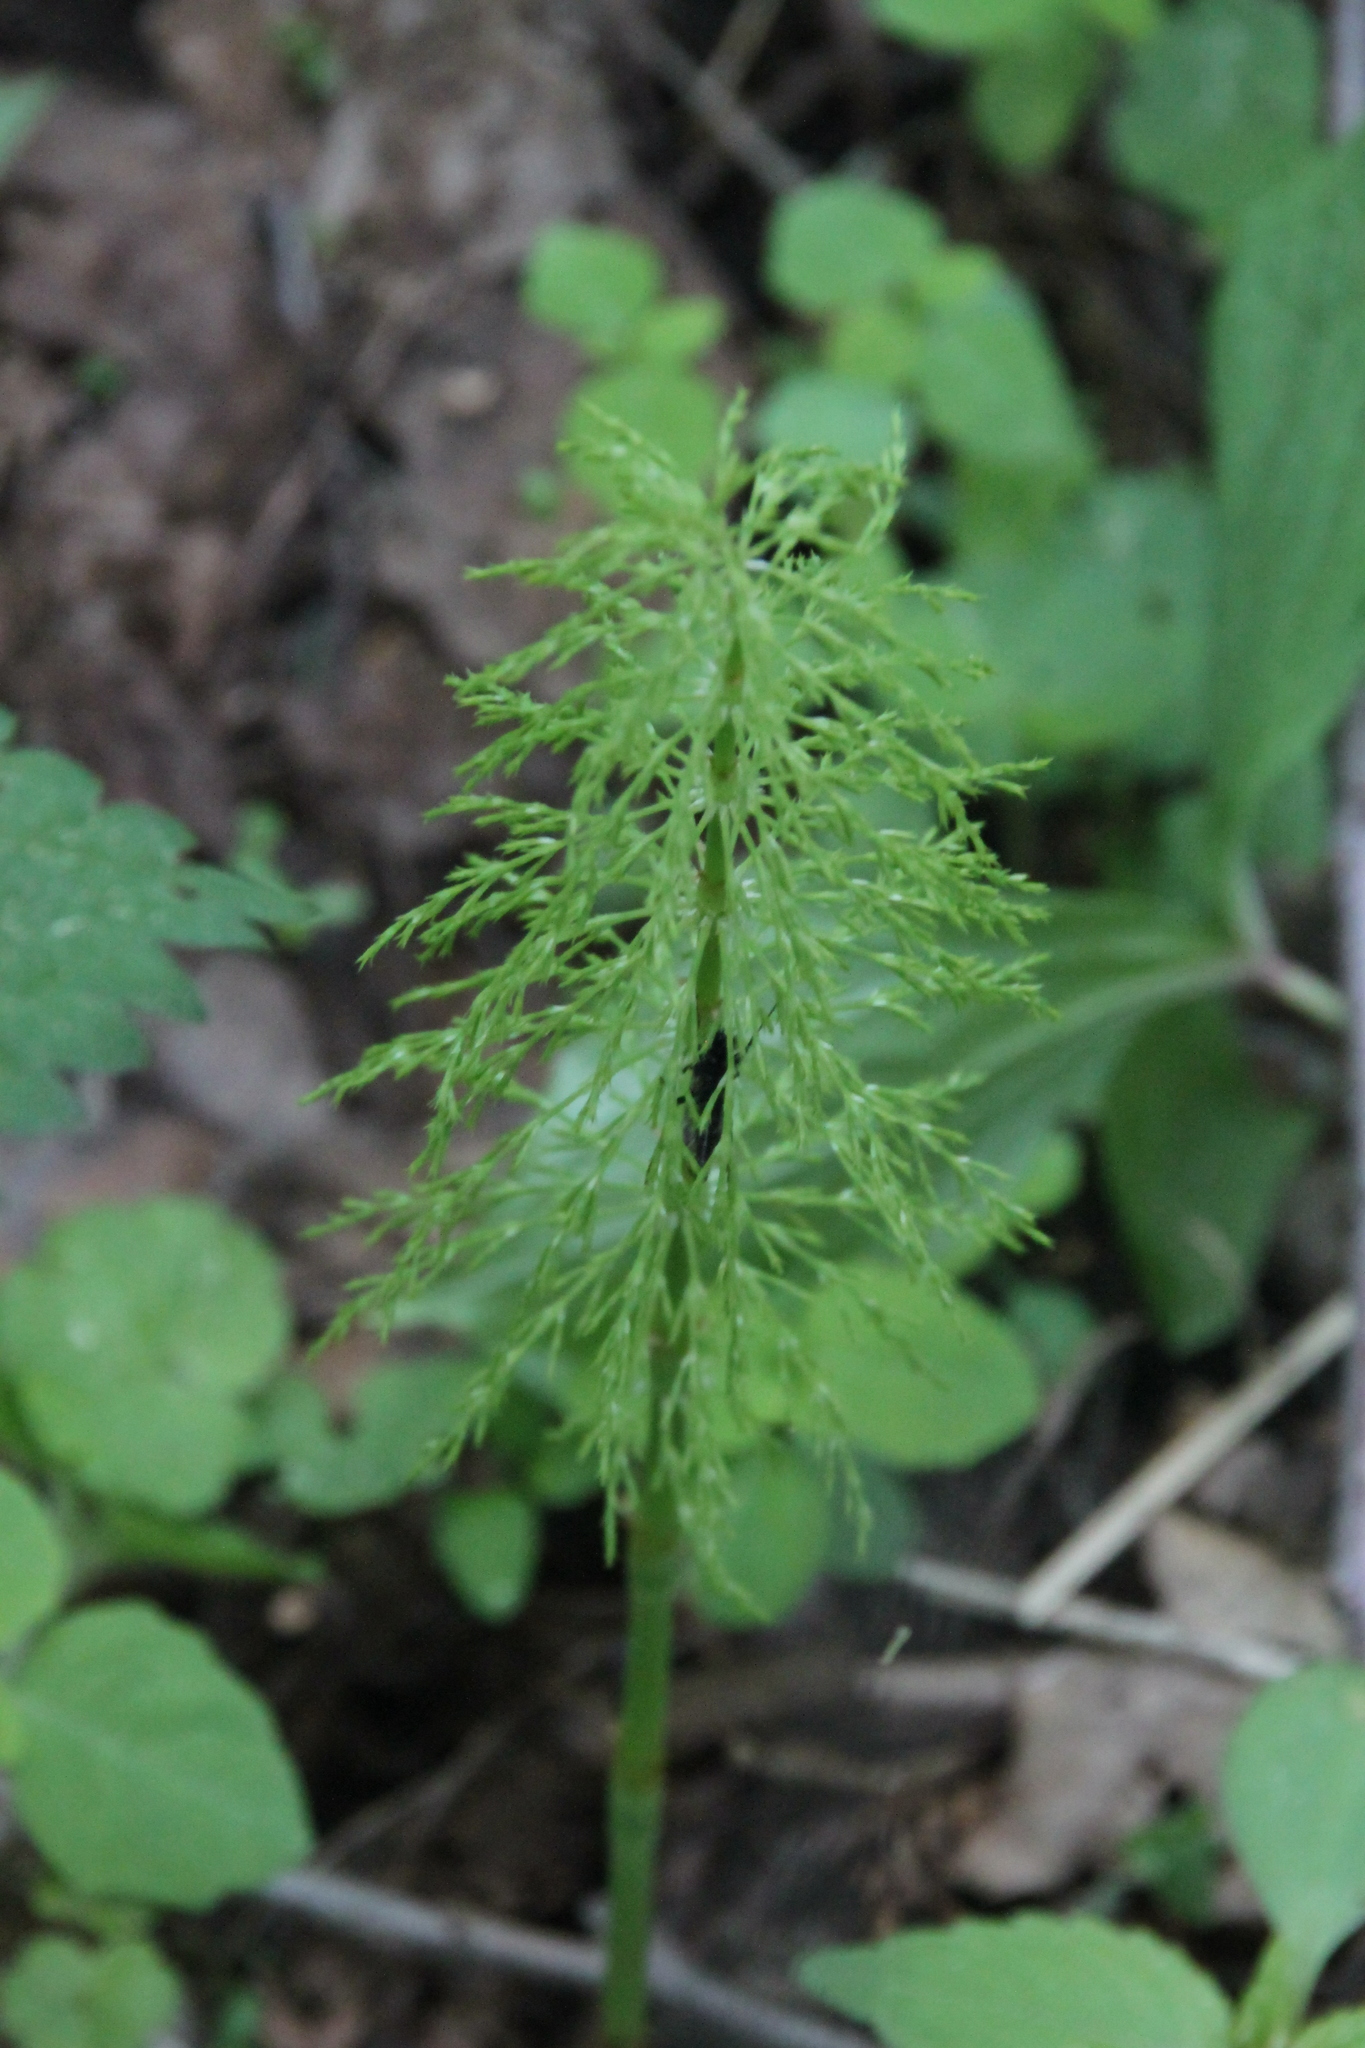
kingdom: Plantae
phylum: Tracheophyta
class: Polypodiopsida
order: Equisetales
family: Equisetaceae
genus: Equisetum
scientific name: Equisetum sylvaticum
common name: Wood horsetail
